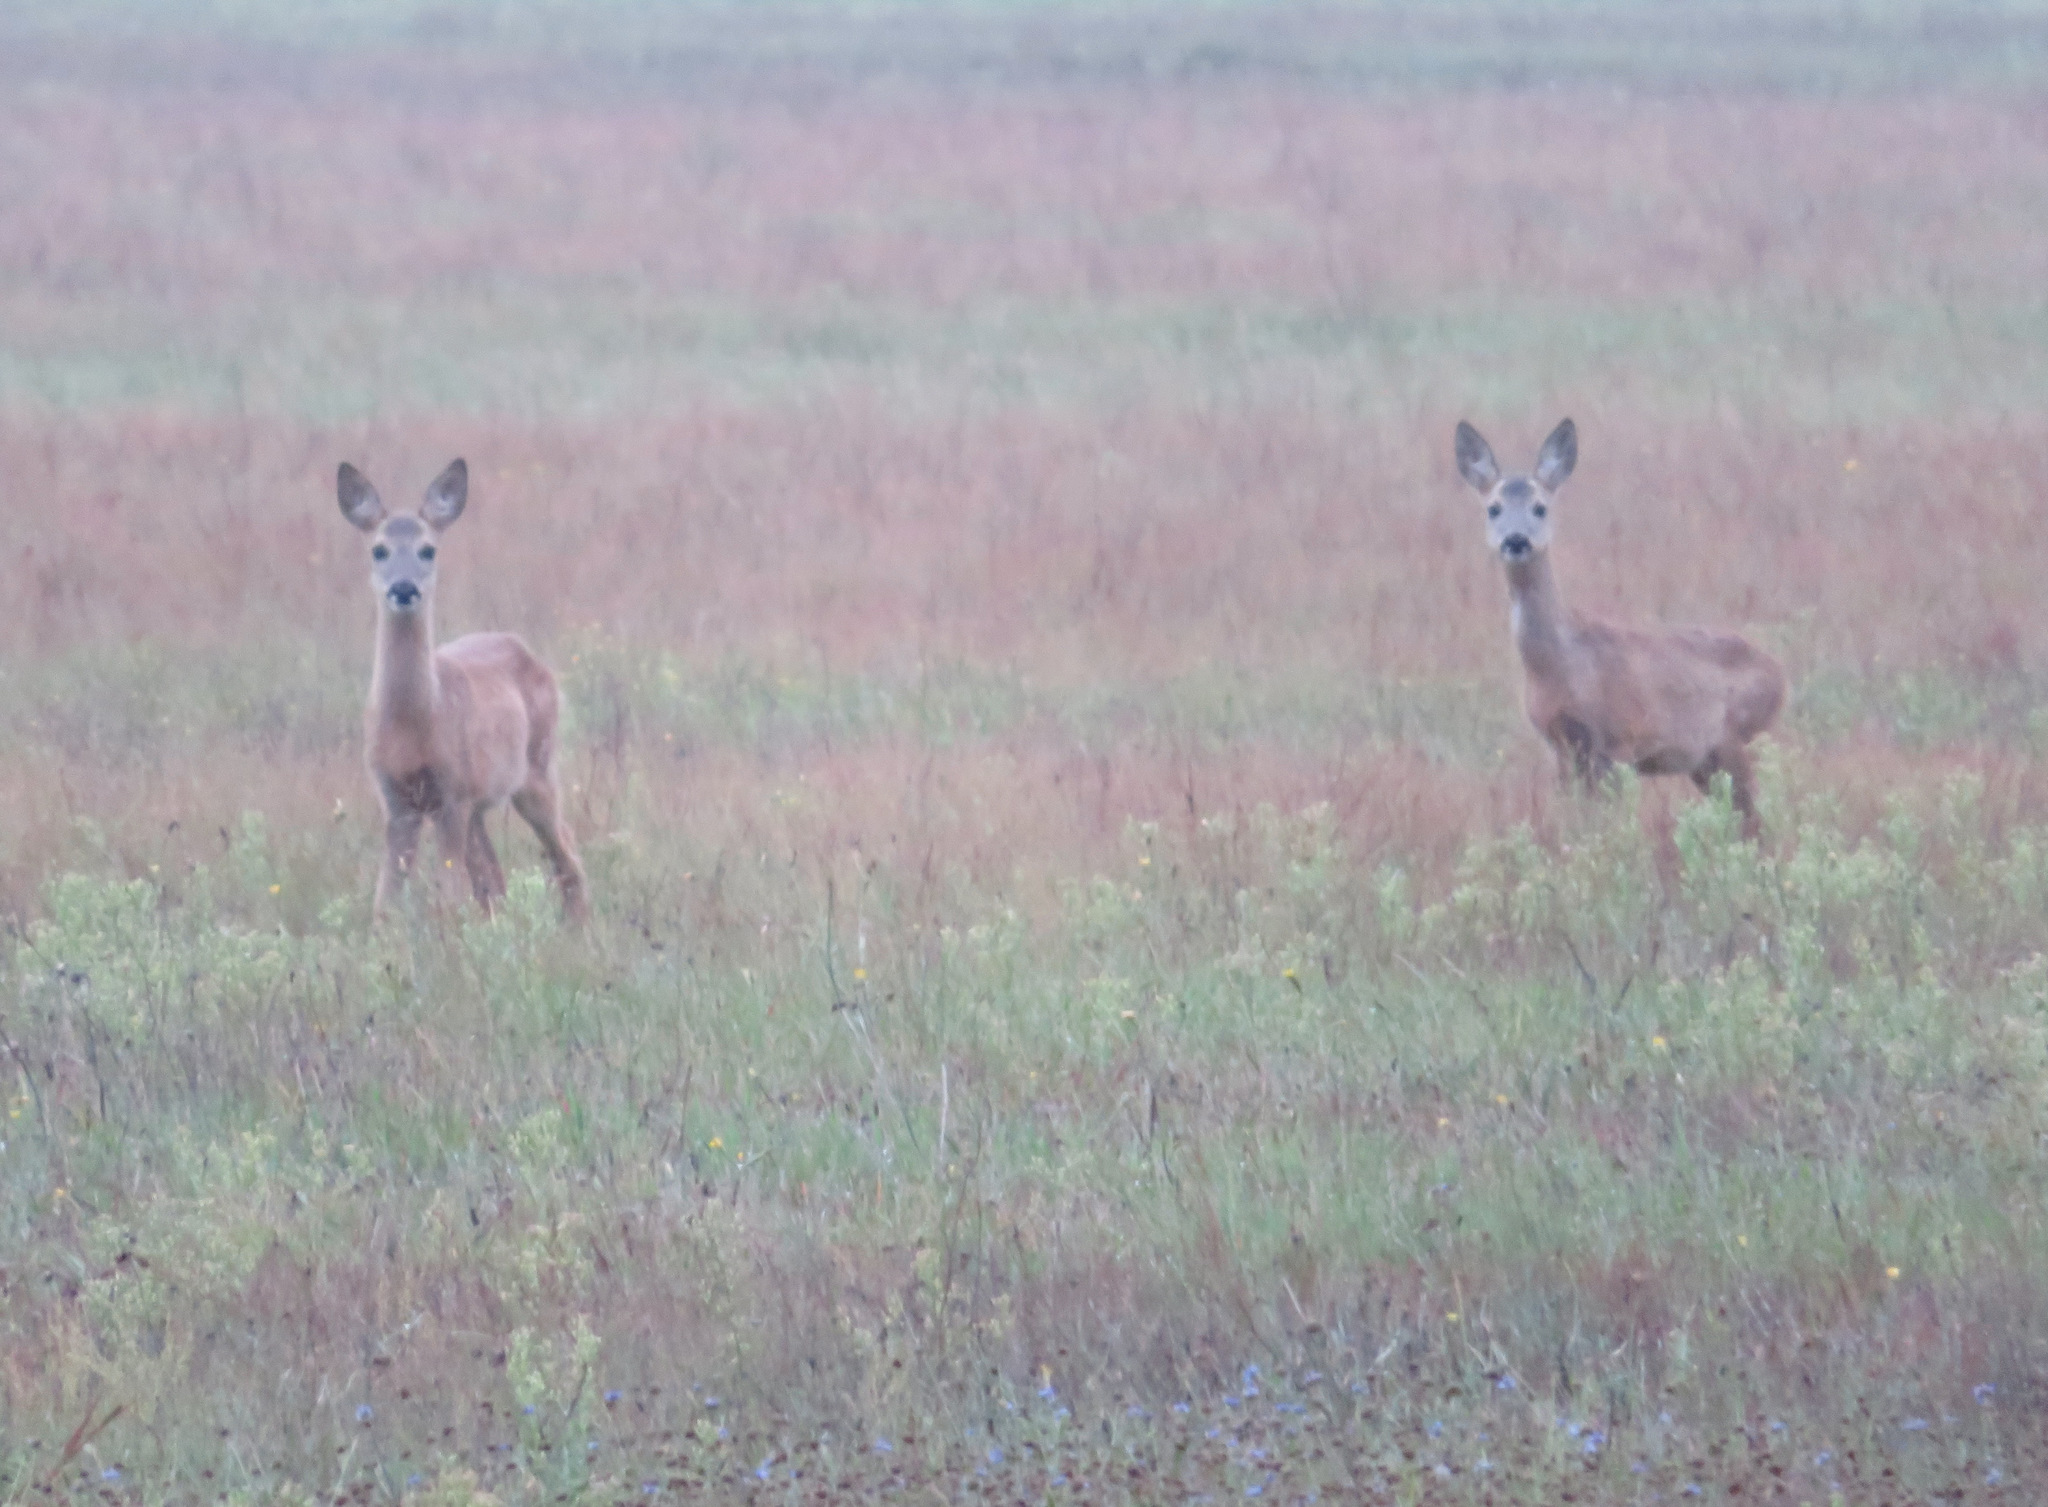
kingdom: Animalia
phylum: Chordata
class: Mammalia
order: Artiodactyla
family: Cervidae
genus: Capreolus
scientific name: Capreolus capreolus
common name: Western roe deer
